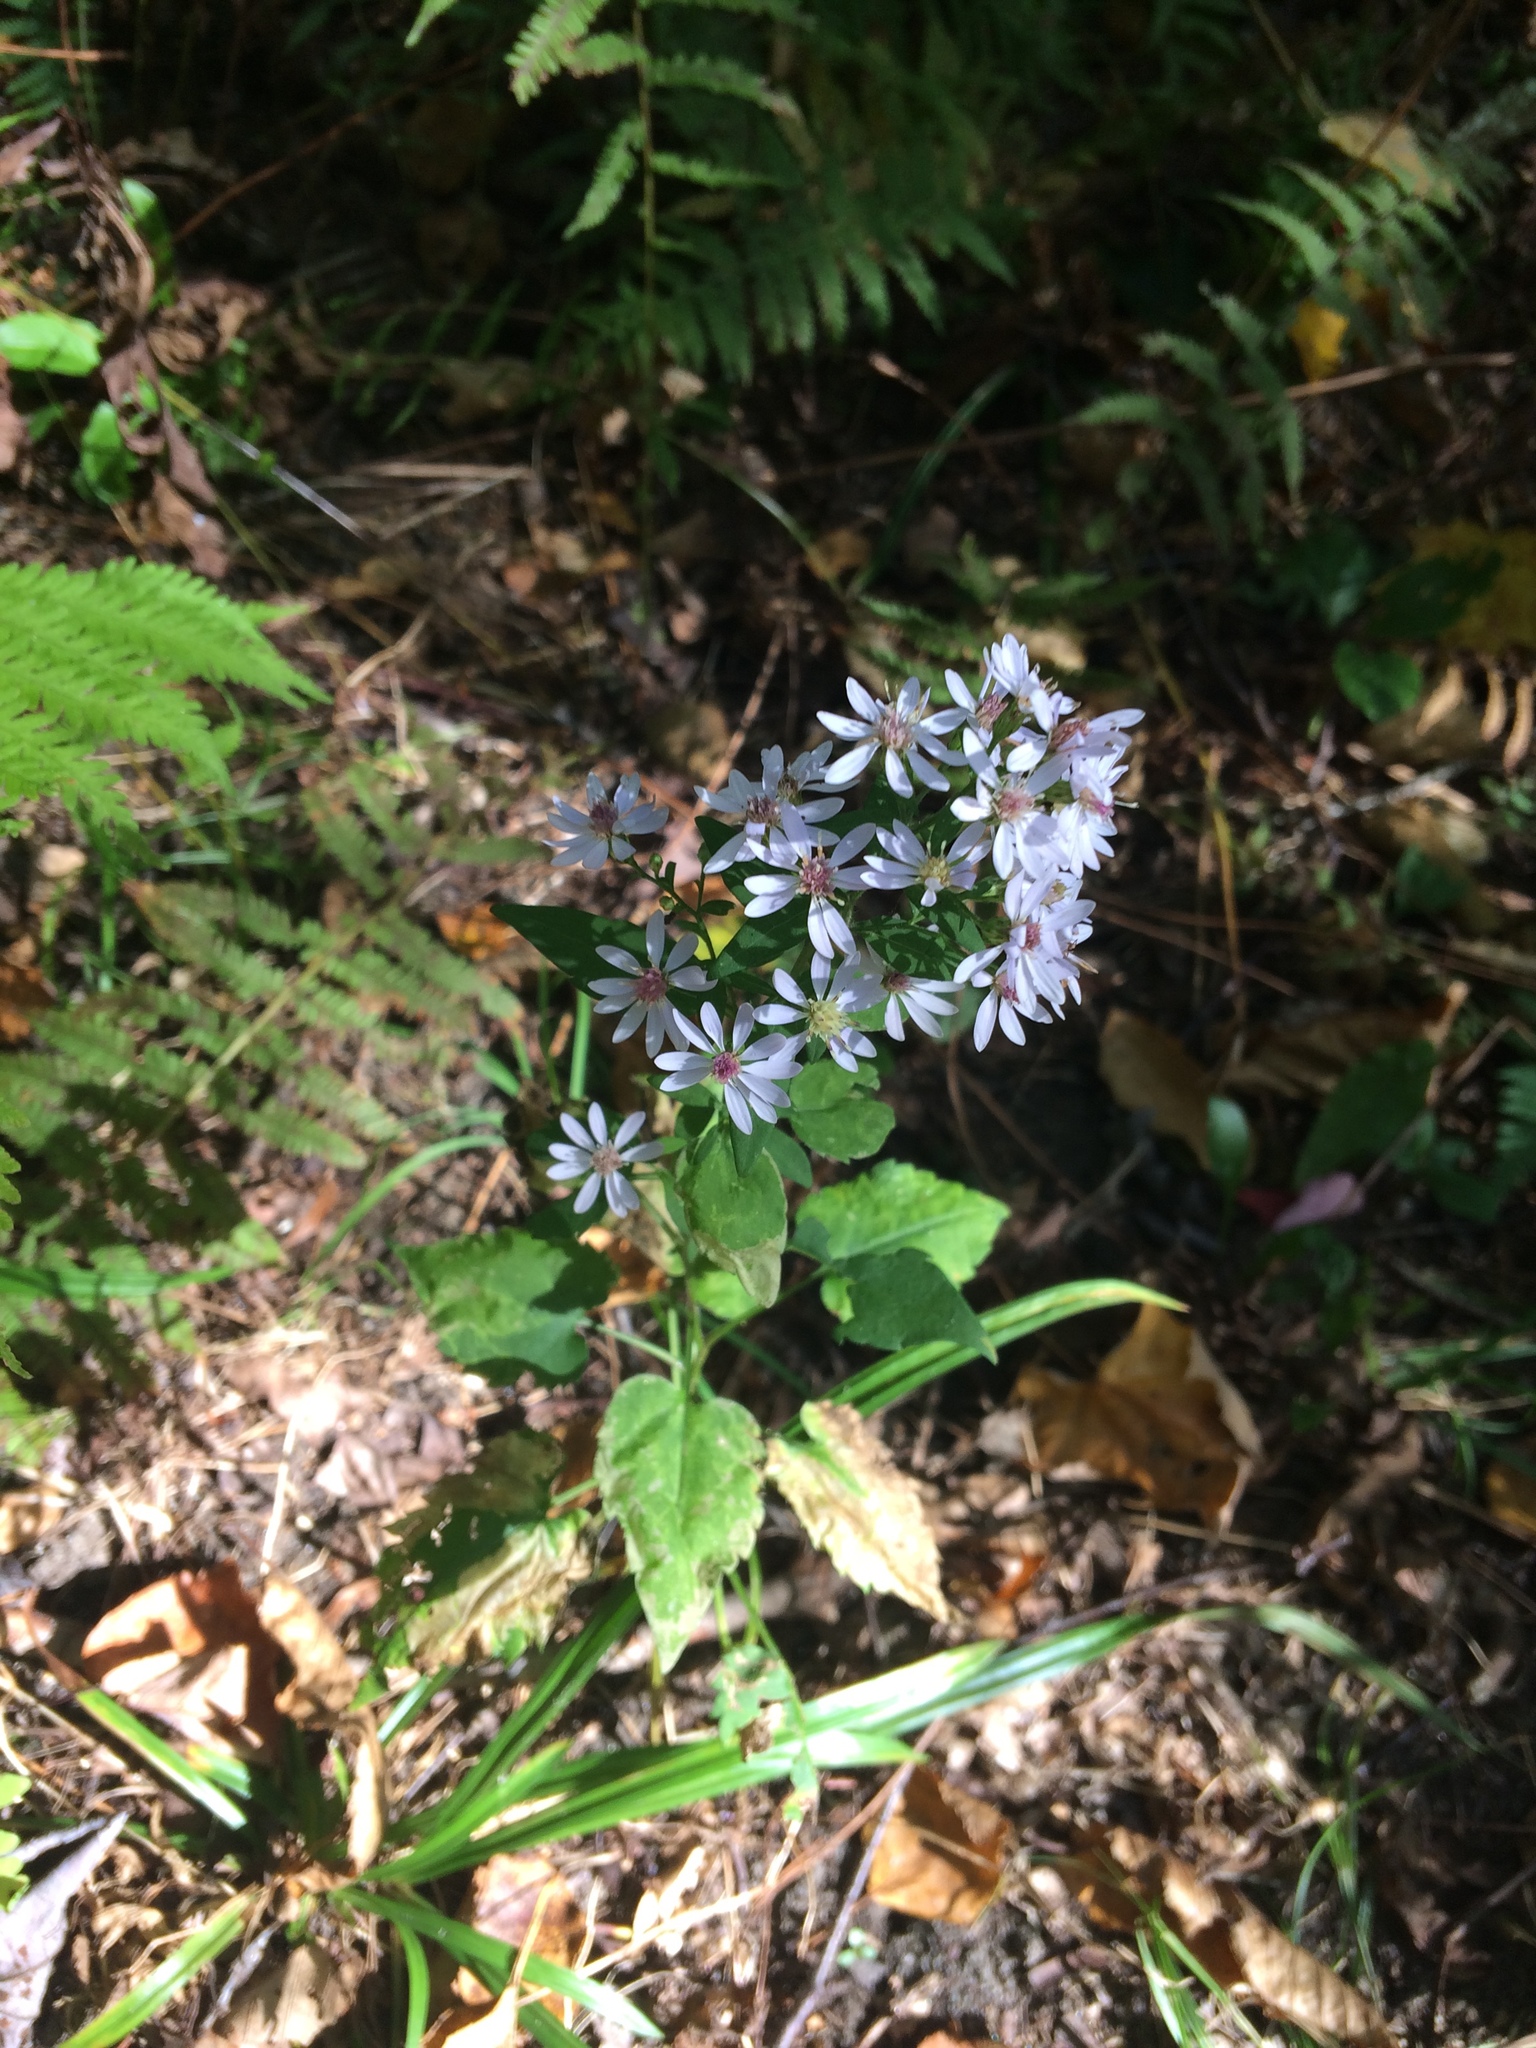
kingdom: Plantae
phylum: Tracheophyta
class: Magnoliopsida
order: Asterales
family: Asteraceae
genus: Symphyotrichum
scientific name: Symphyotrichum cordifolium
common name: Beeweed
